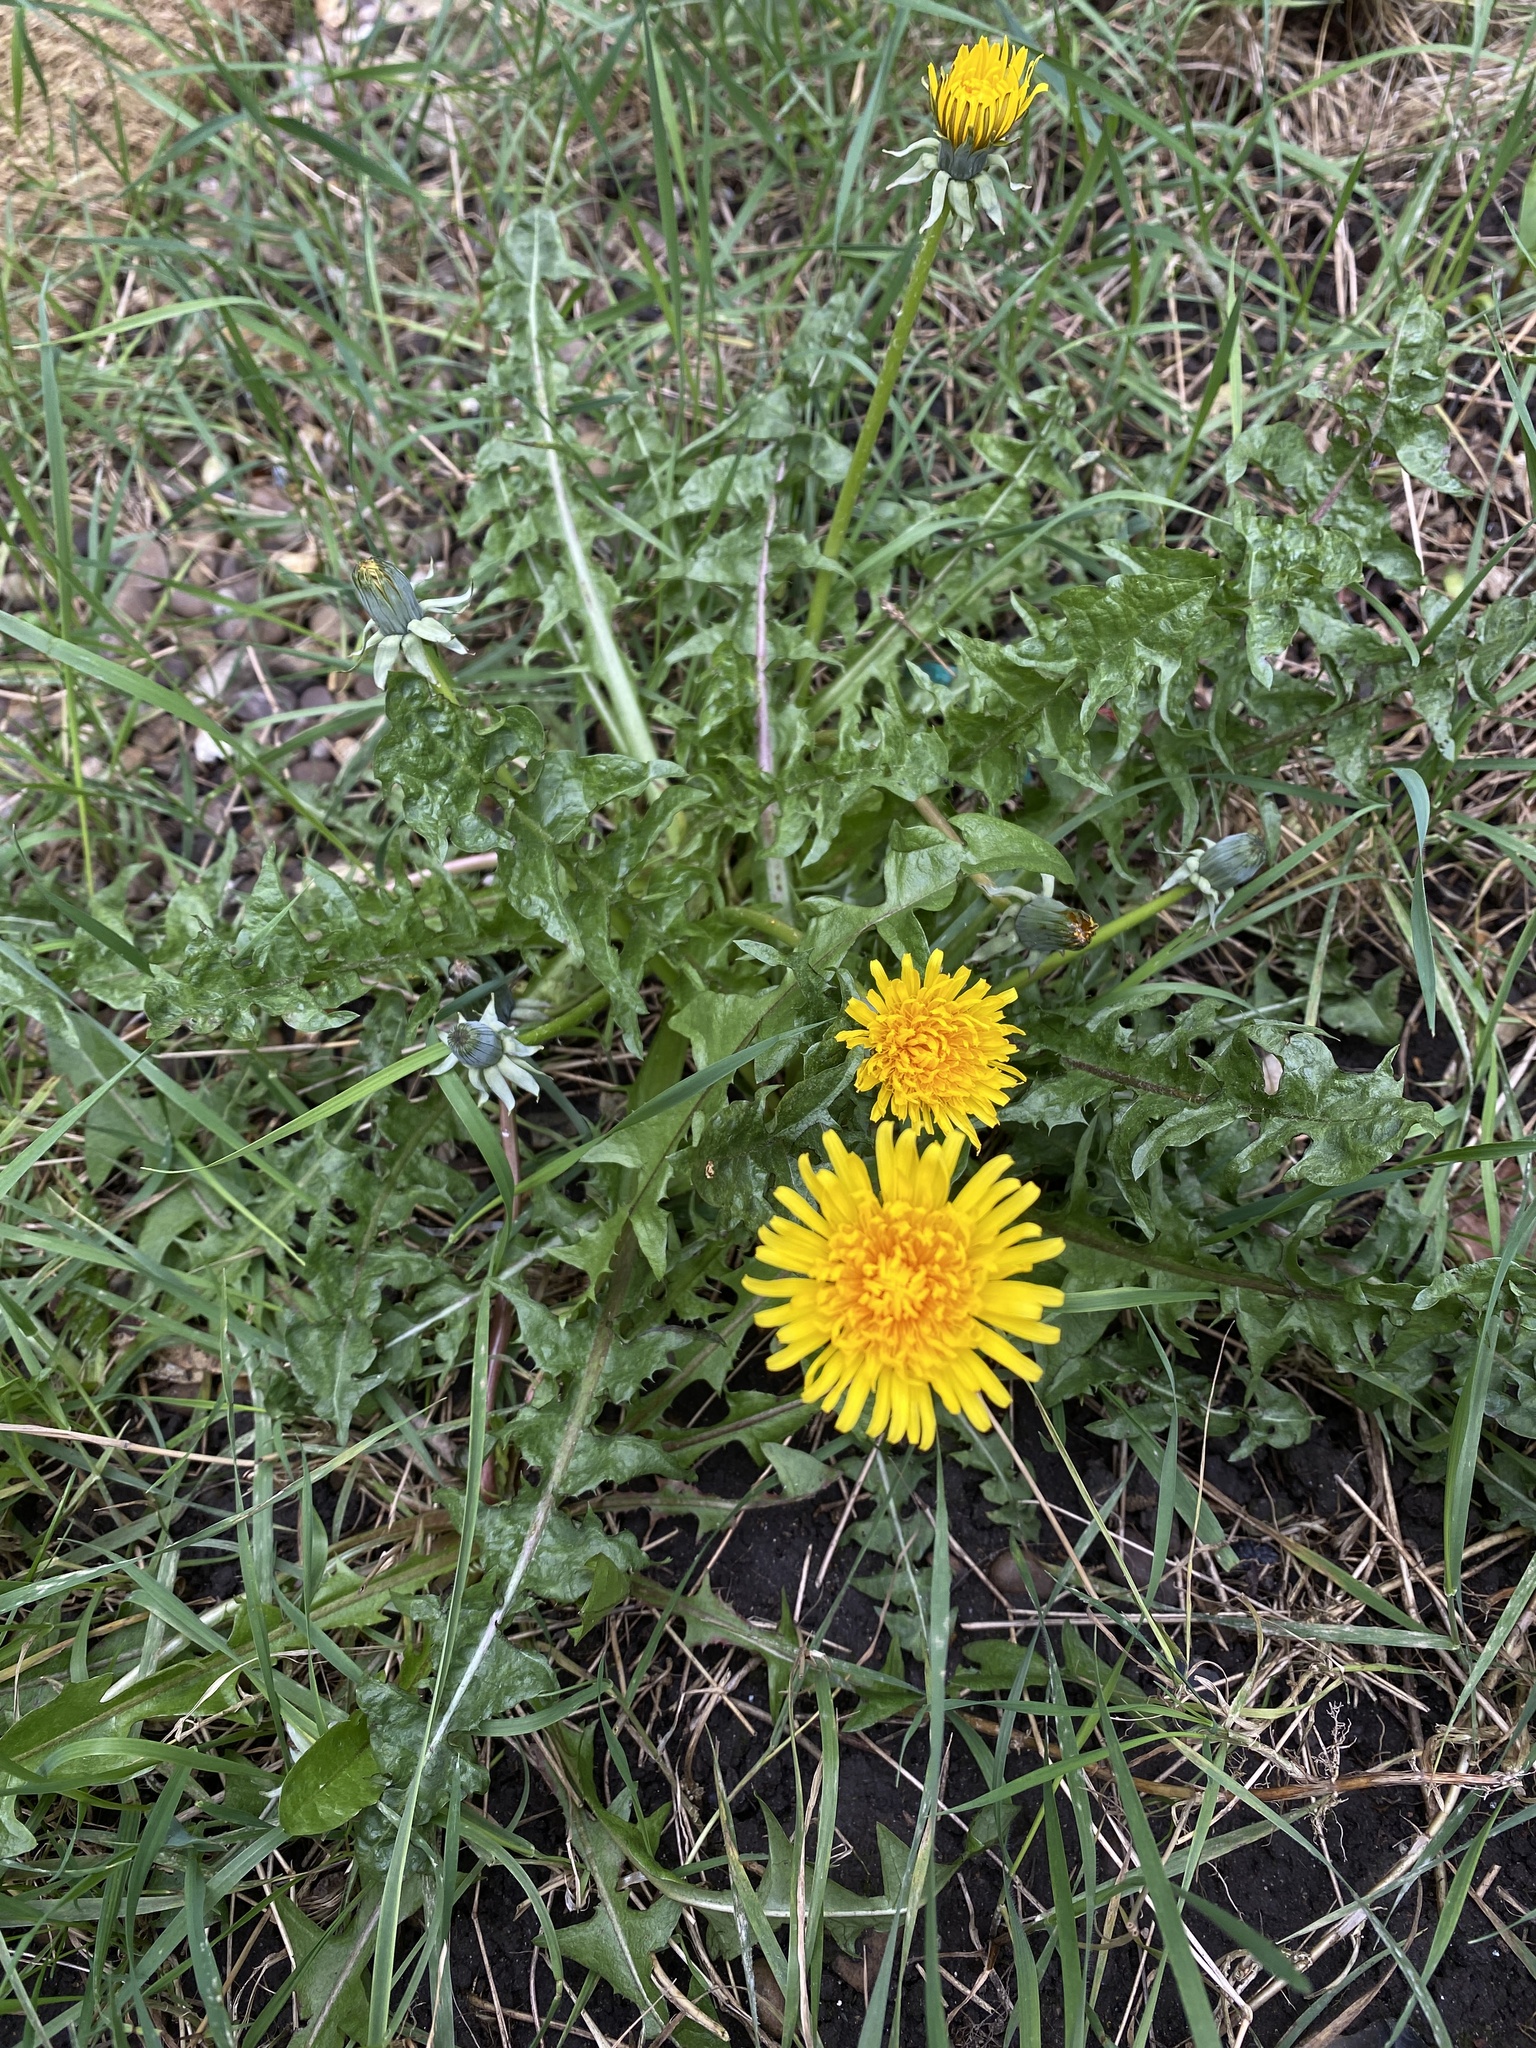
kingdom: Plantae
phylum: Tracheophyta
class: Magnoliopsida
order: Asterales
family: Asteraceae
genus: Taraxacum
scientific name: Taraxacum officinale
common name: Common dandelion
